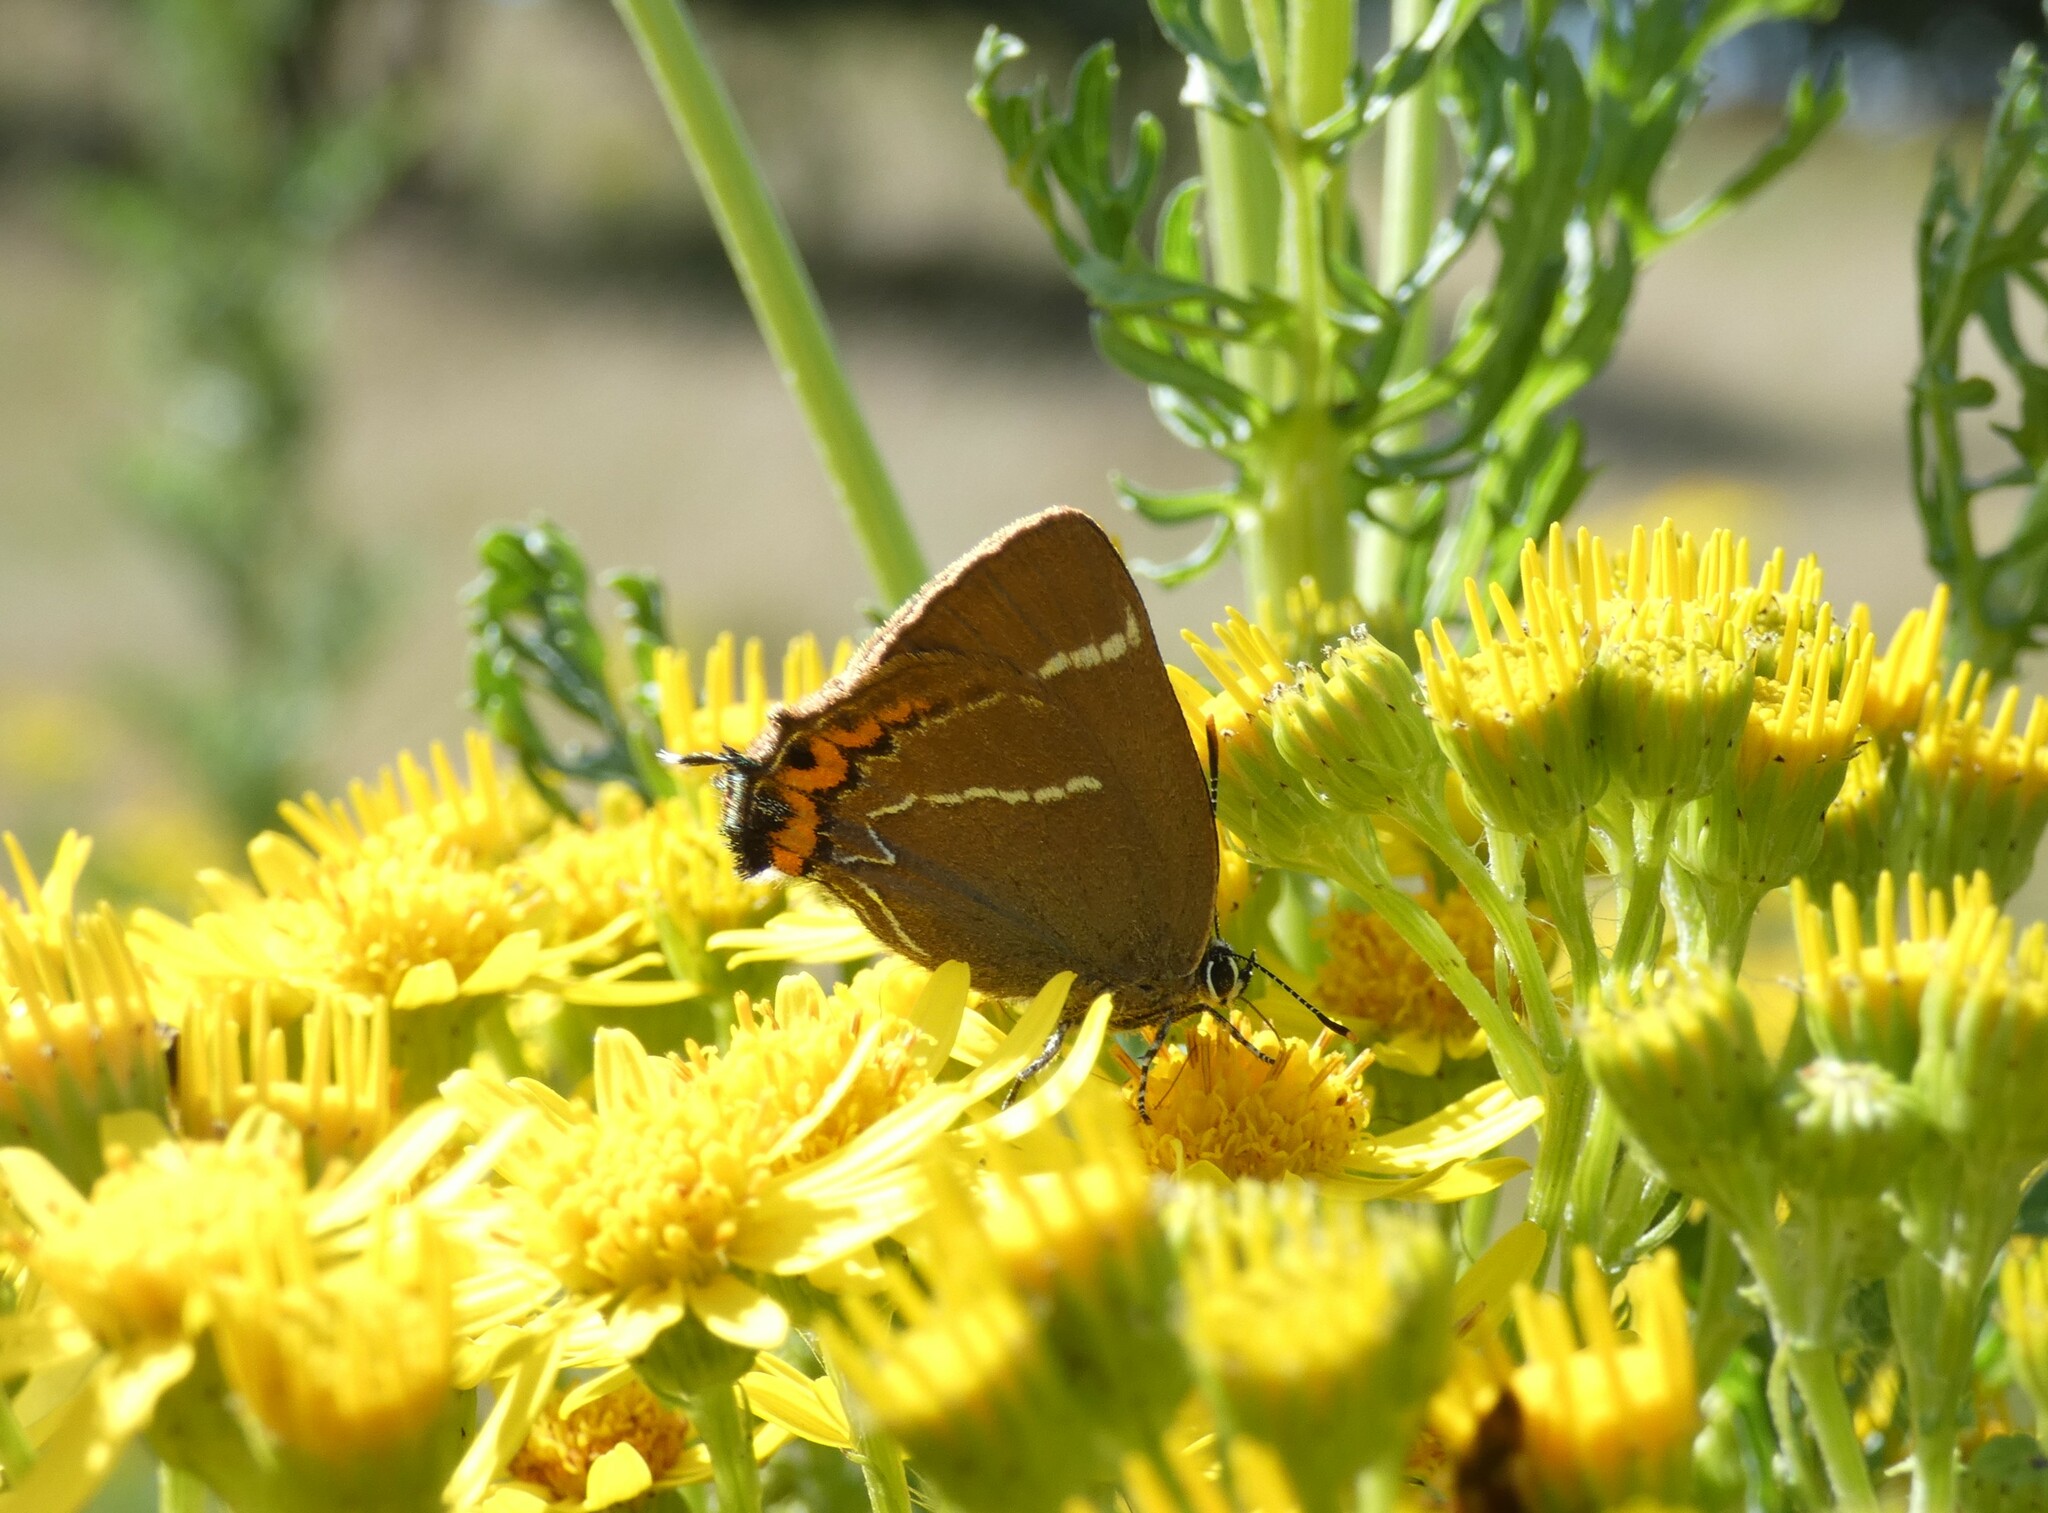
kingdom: Animalia
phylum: Arthropoda
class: Insecta
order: Lepidoptera
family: Lycaenidae
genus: Satyrium
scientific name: Satyrium w-album
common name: White-letter hairstreak
